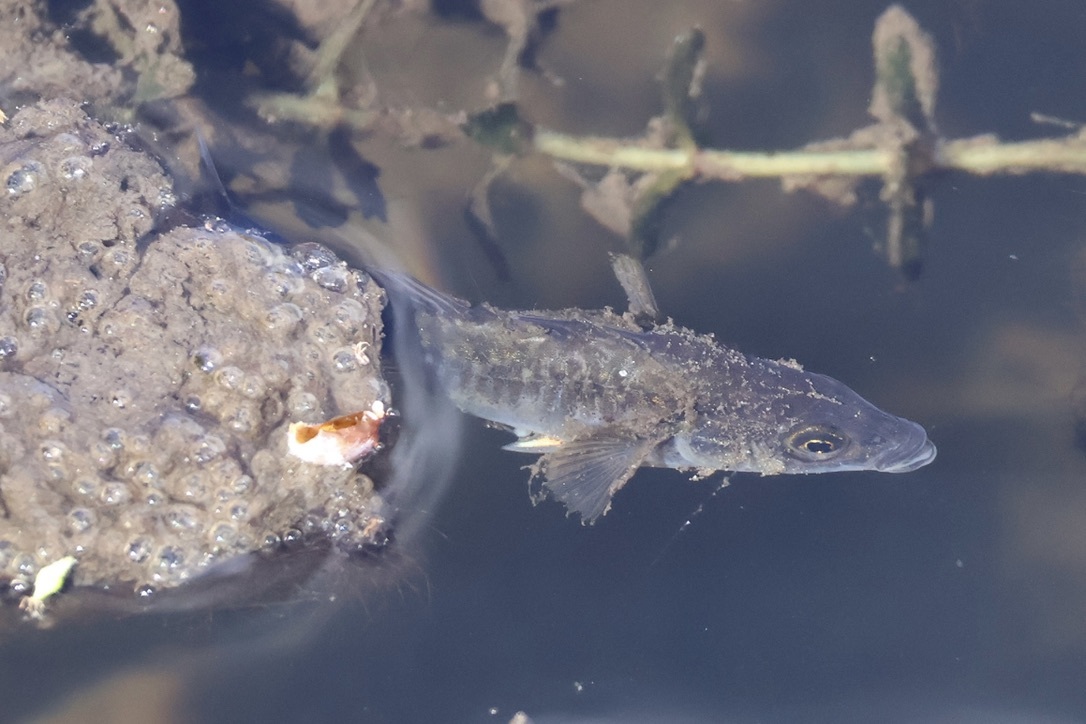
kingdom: Animalia
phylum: Chordata
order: Gasterosteiformes
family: Gasterosteidae
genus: Gasterosteus
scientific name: Gasterosteus aculeatus
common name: Three-spined stickleback
